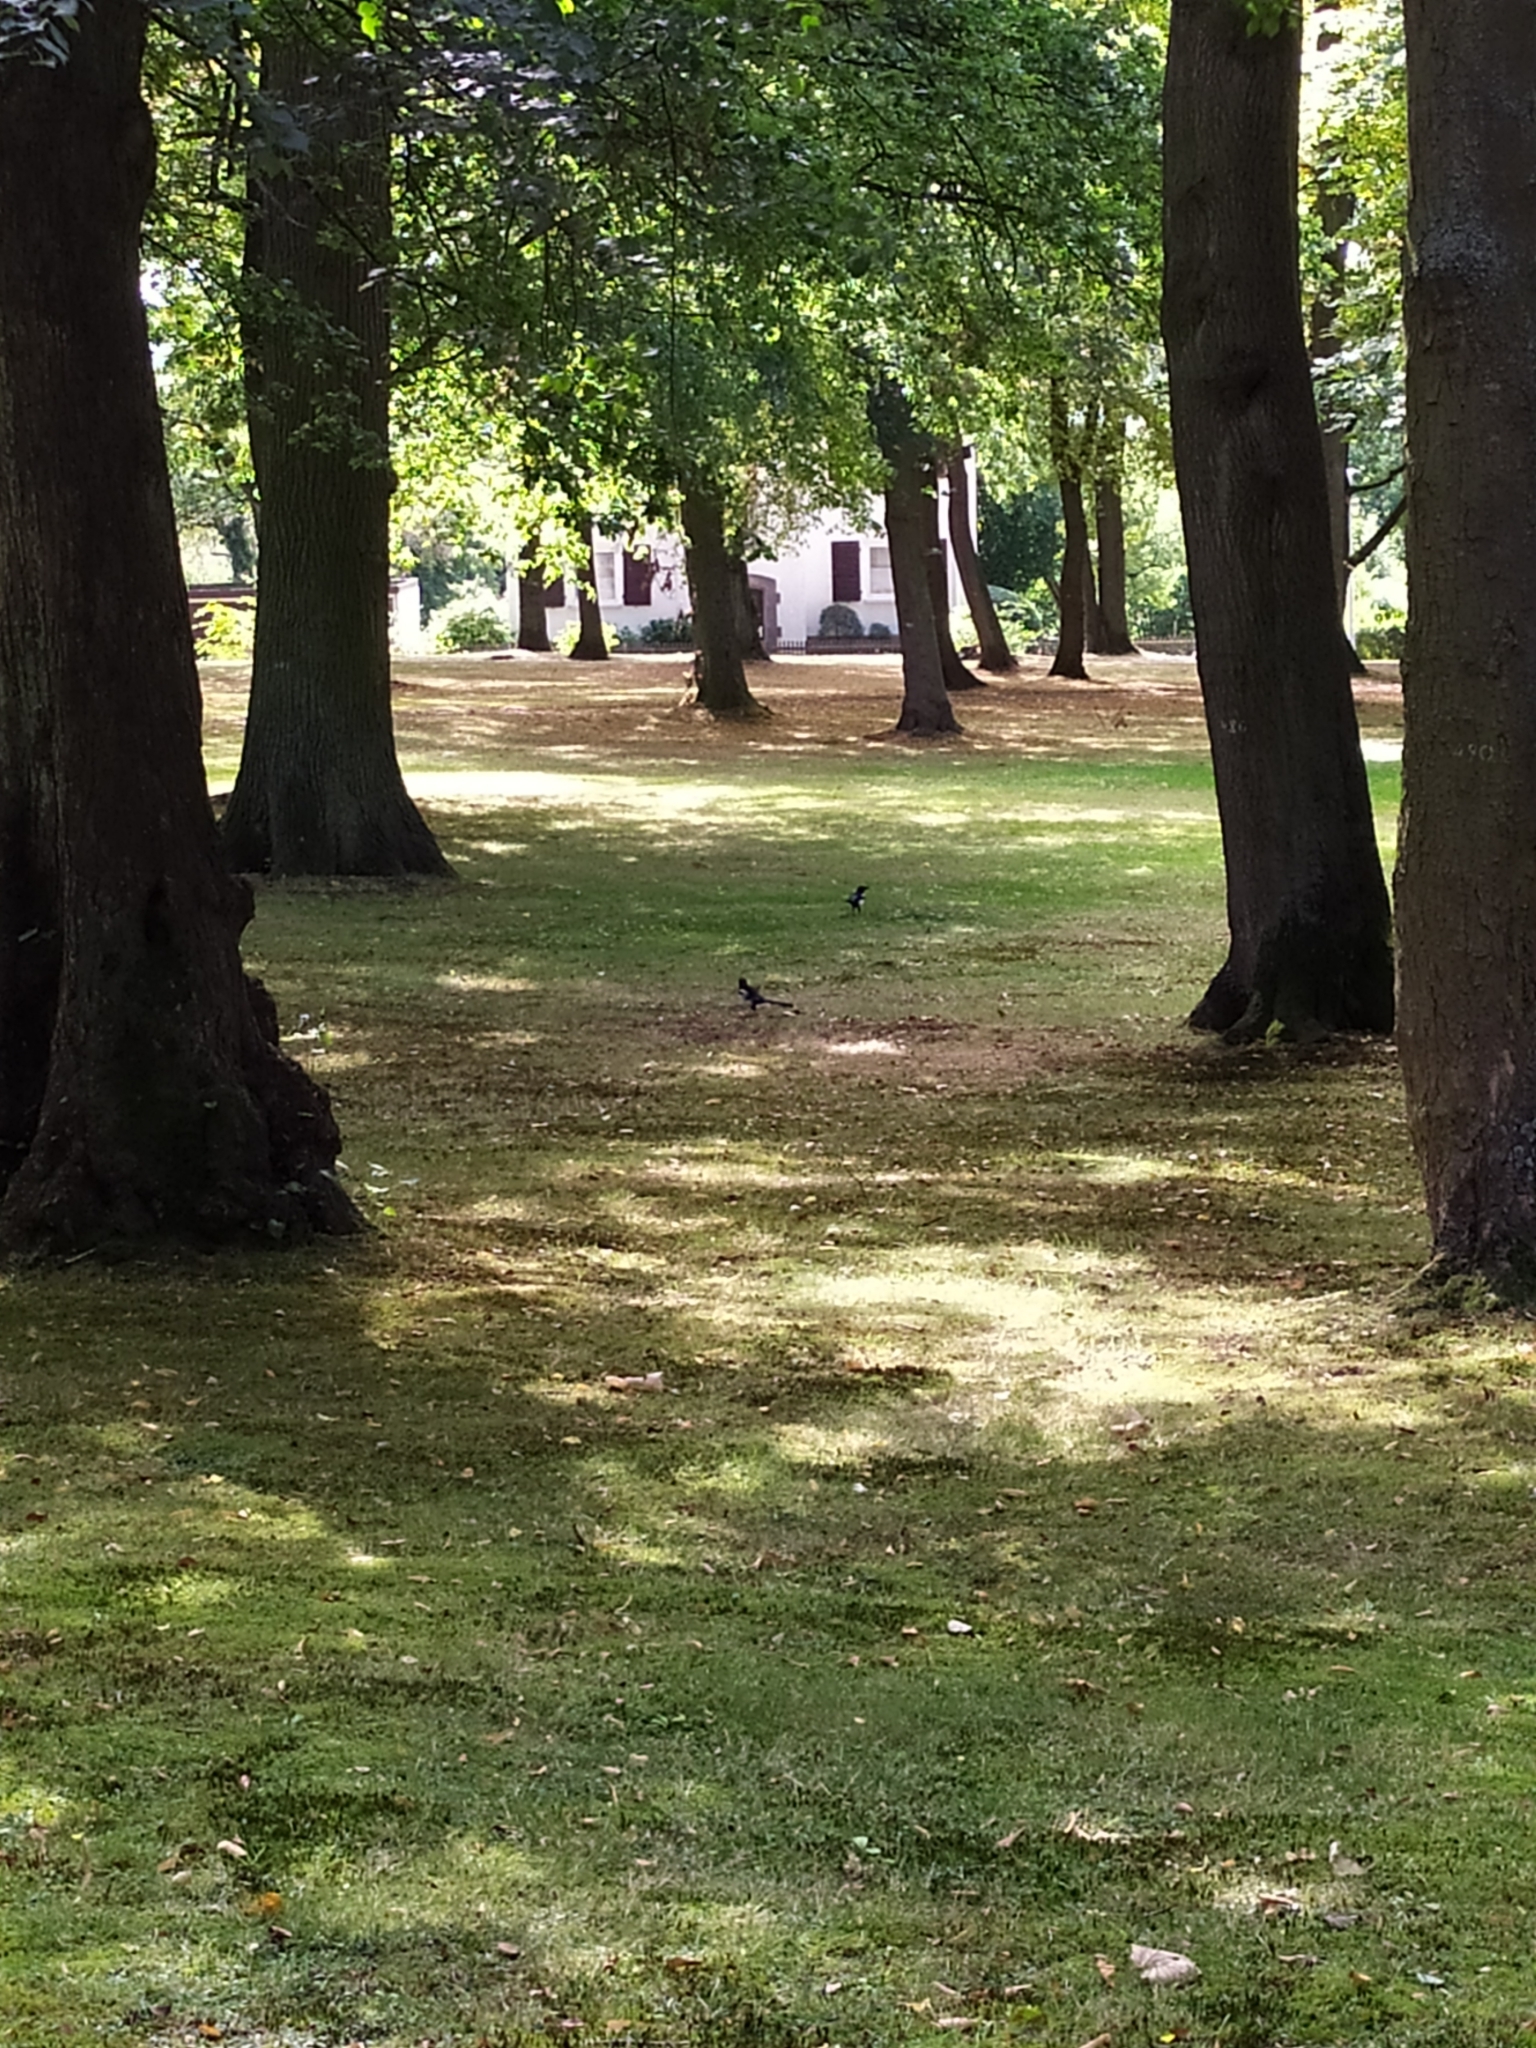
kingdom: Animalia
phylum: Chordata
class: Aves
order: Passeriformes
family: Corvidae
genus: Pica
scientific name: Pica pica
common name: Eurasian magpie
